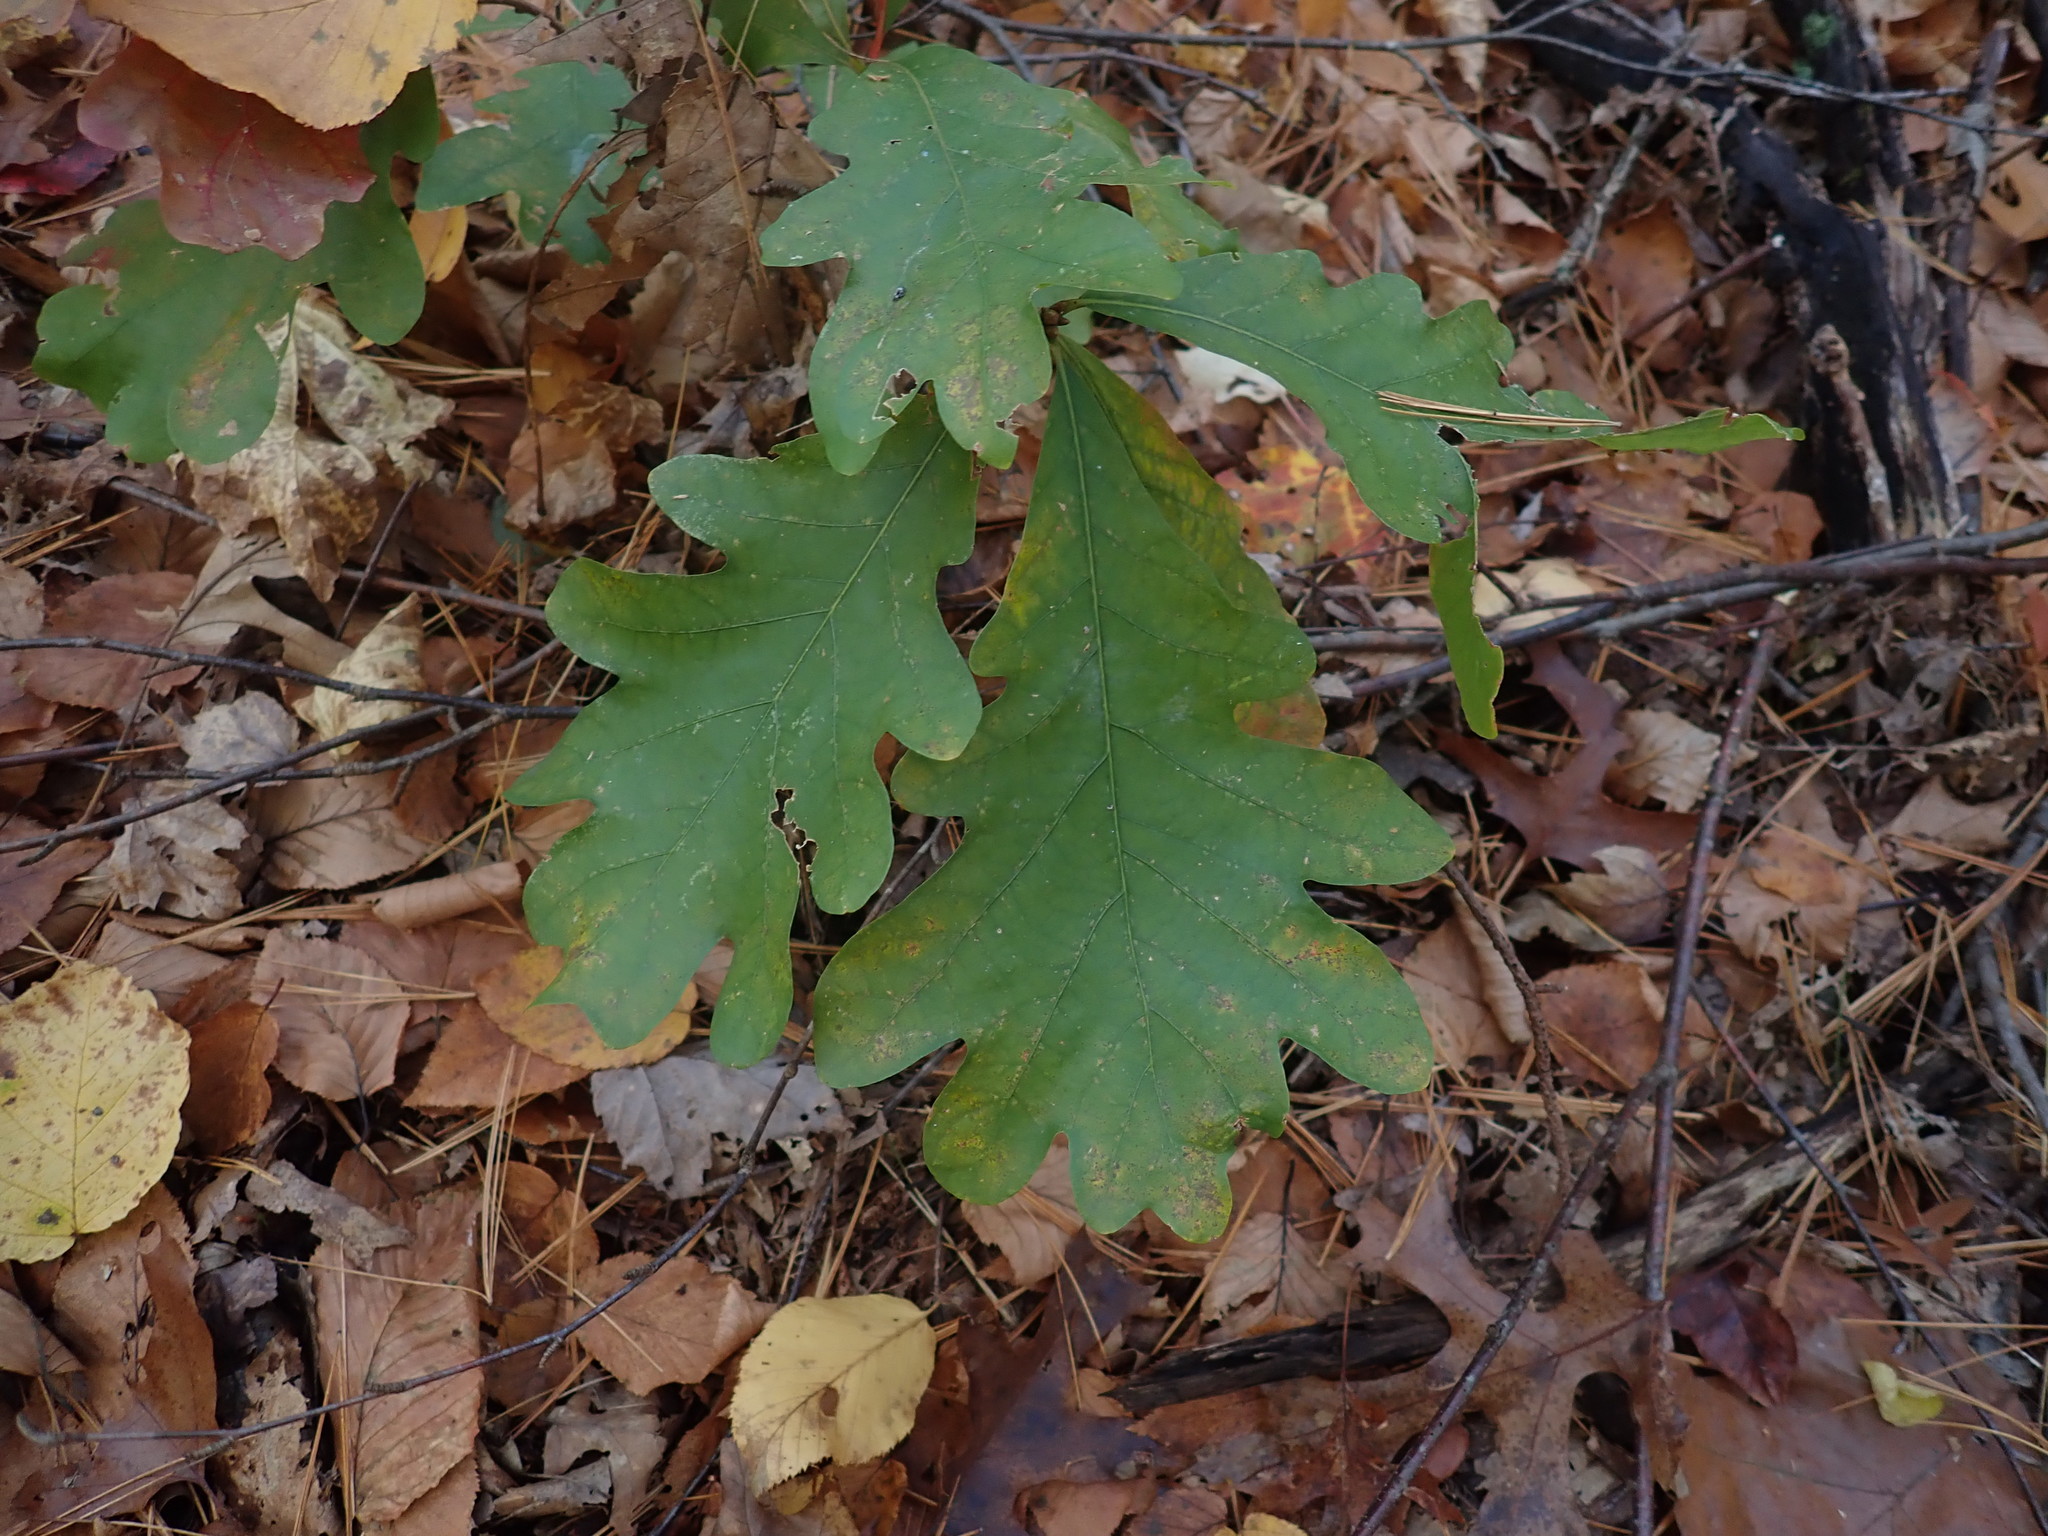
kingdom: Plantae
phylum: Tracheophyta
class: Magnoliopsida
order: Fagales
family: Fagaceae
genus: Quercus
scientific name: Quercus alba
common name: White oak
